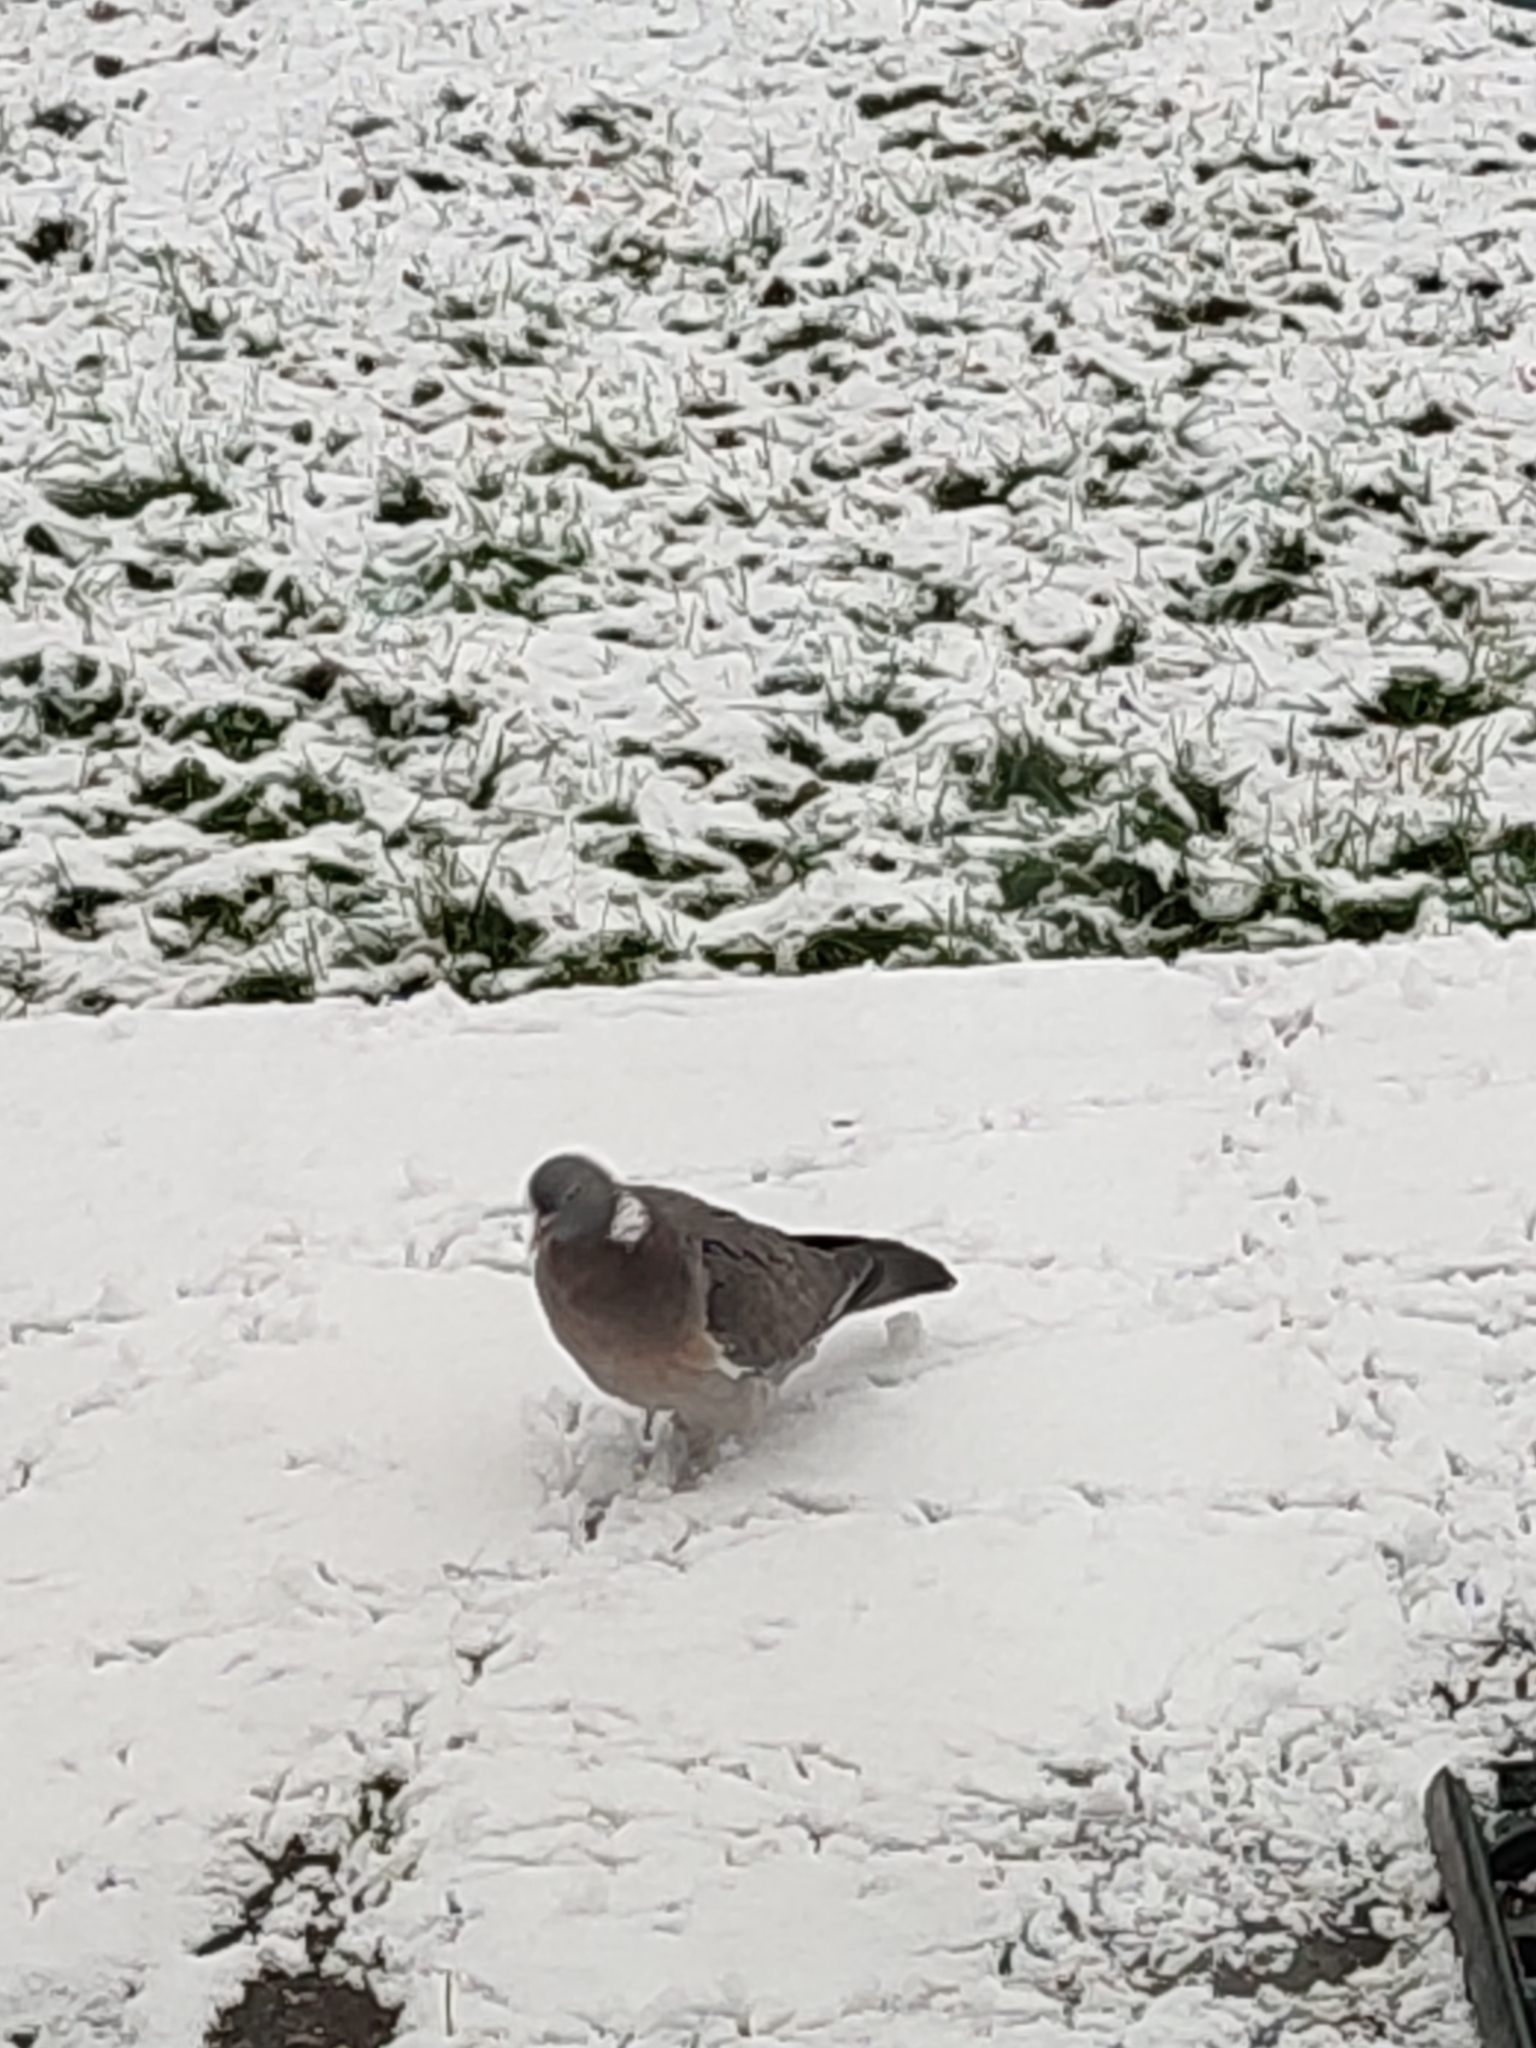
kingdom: Animalia
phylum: Chordata
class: Aves
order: Columbiformes
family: Columbidae
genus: Columba
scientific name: Columba palumbus
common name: Common wood pigeon
